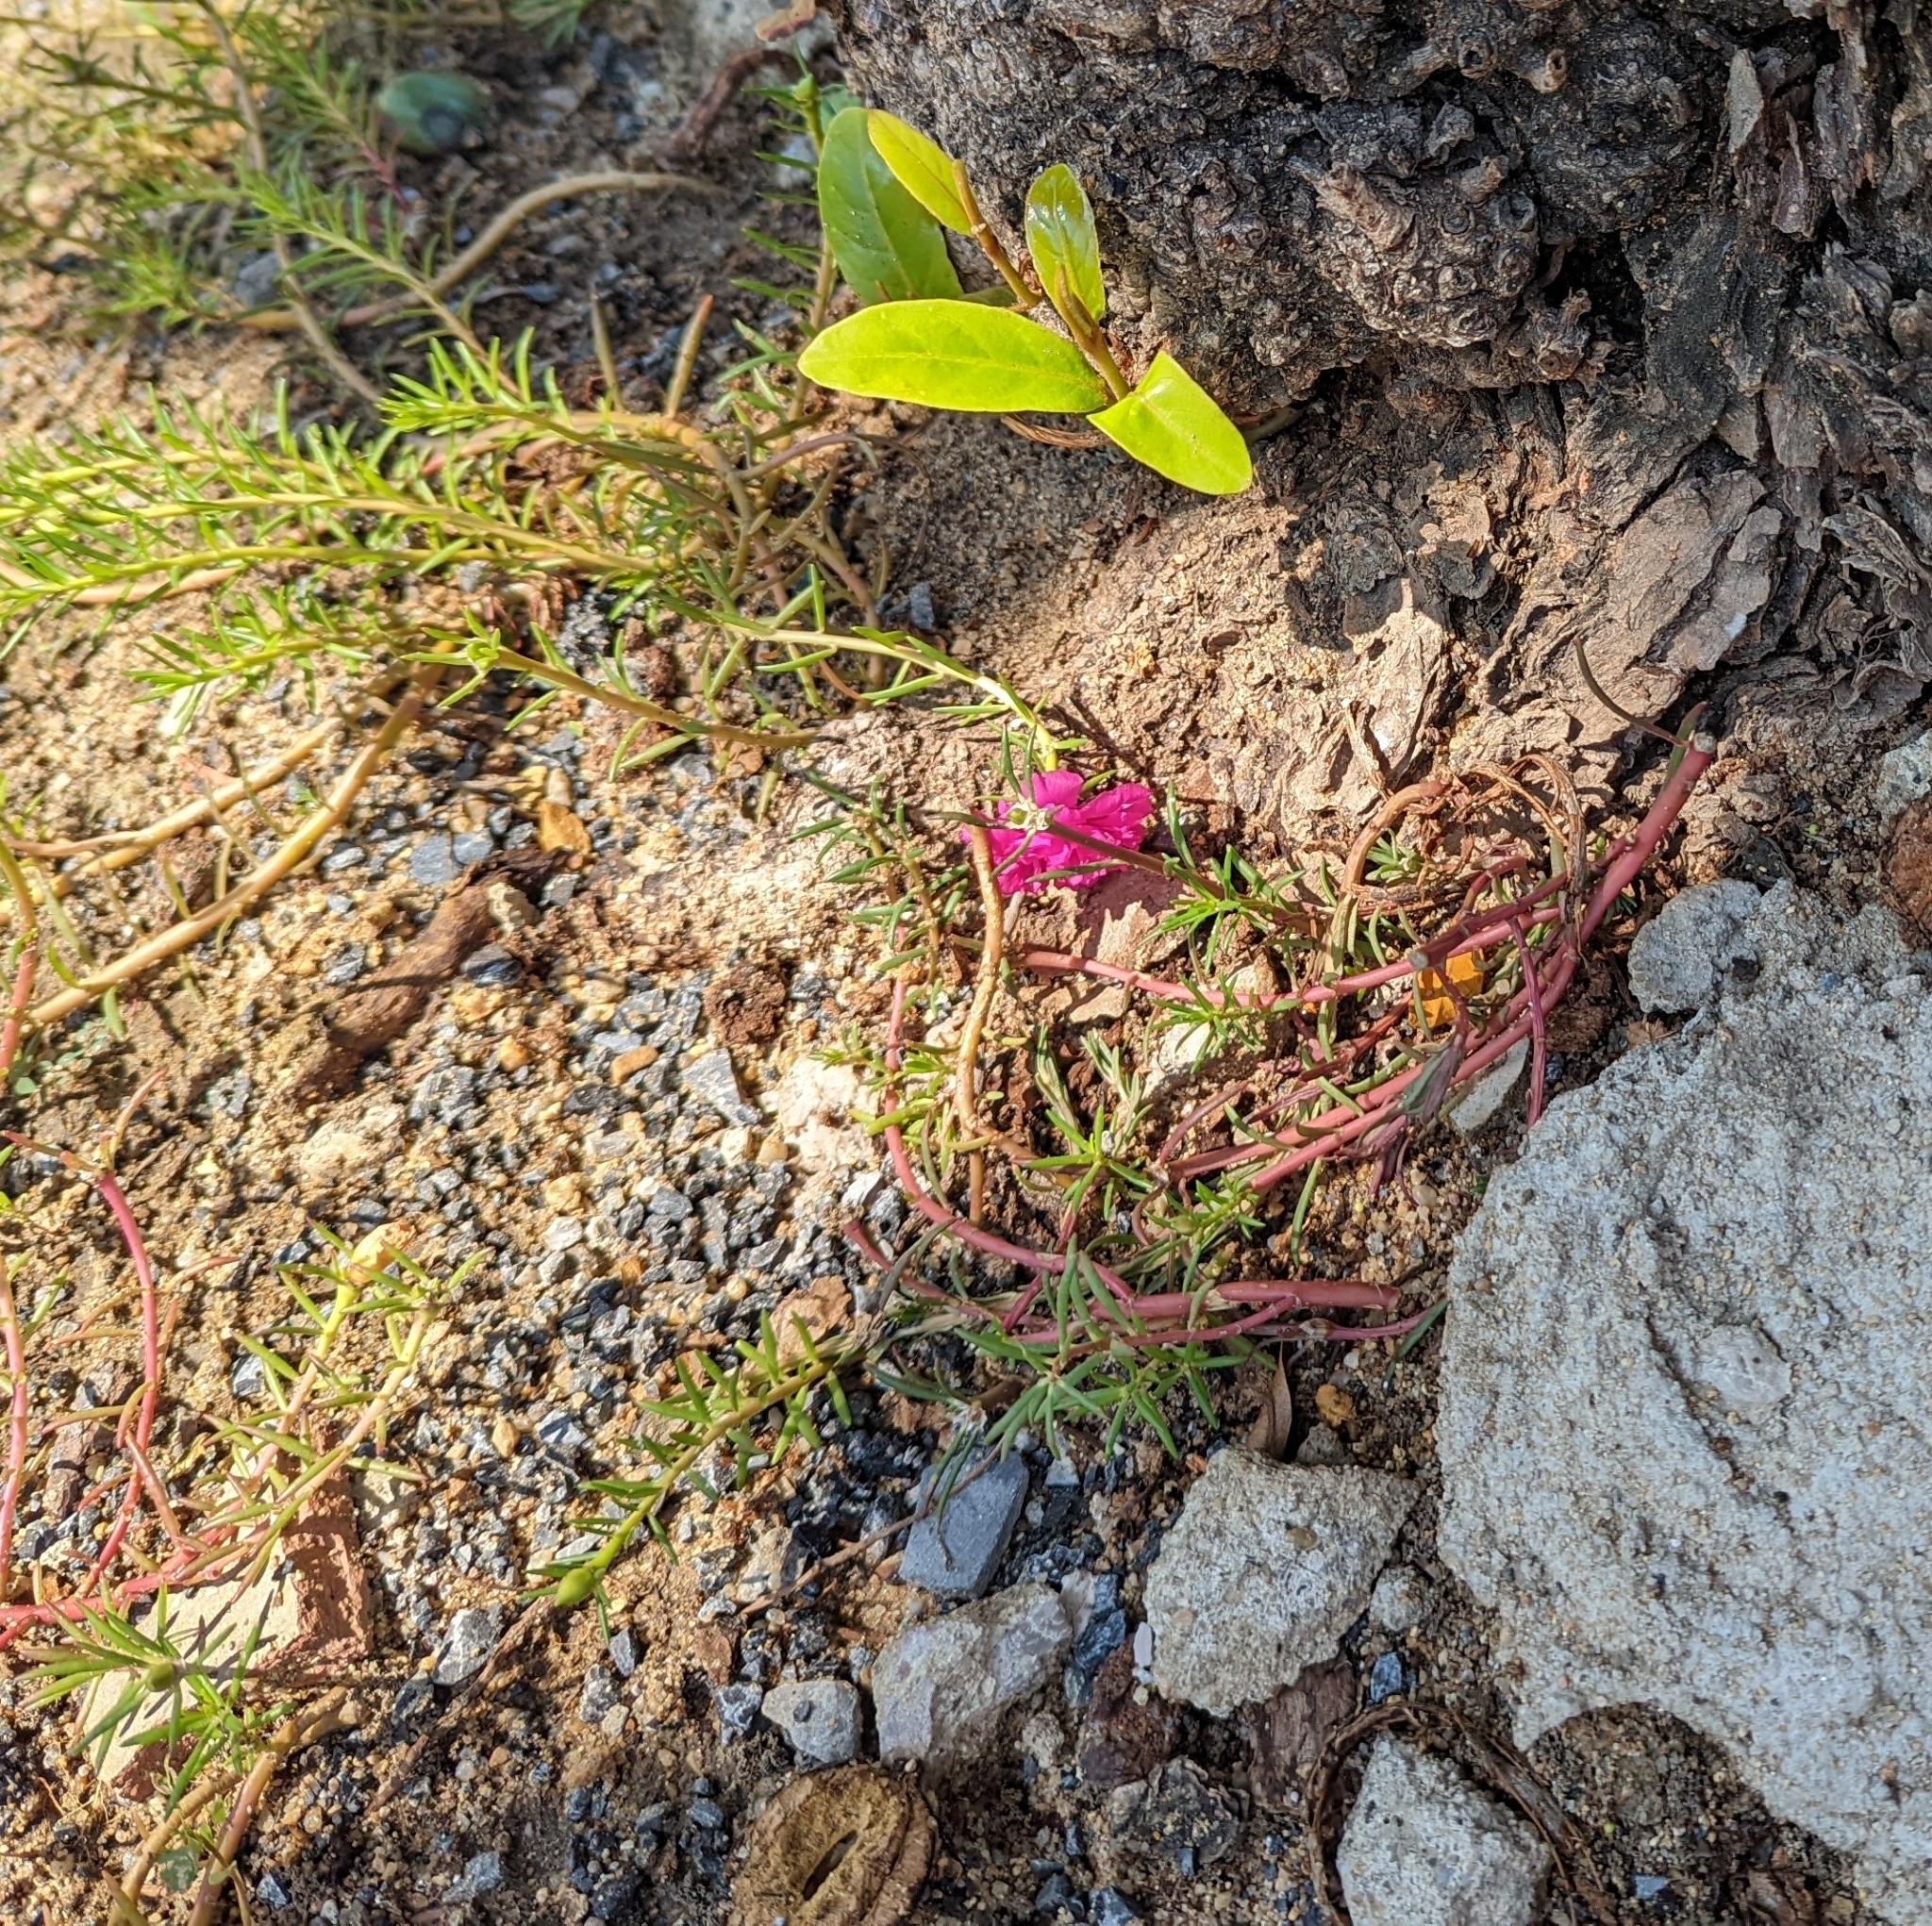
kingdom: Plantae
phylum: Tracheophyta
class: Magnoliopsida
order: Caryophyllales
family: Portulacaceae
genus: Portulaca
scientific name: Portulaca grandiflora
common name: Moss-rose
